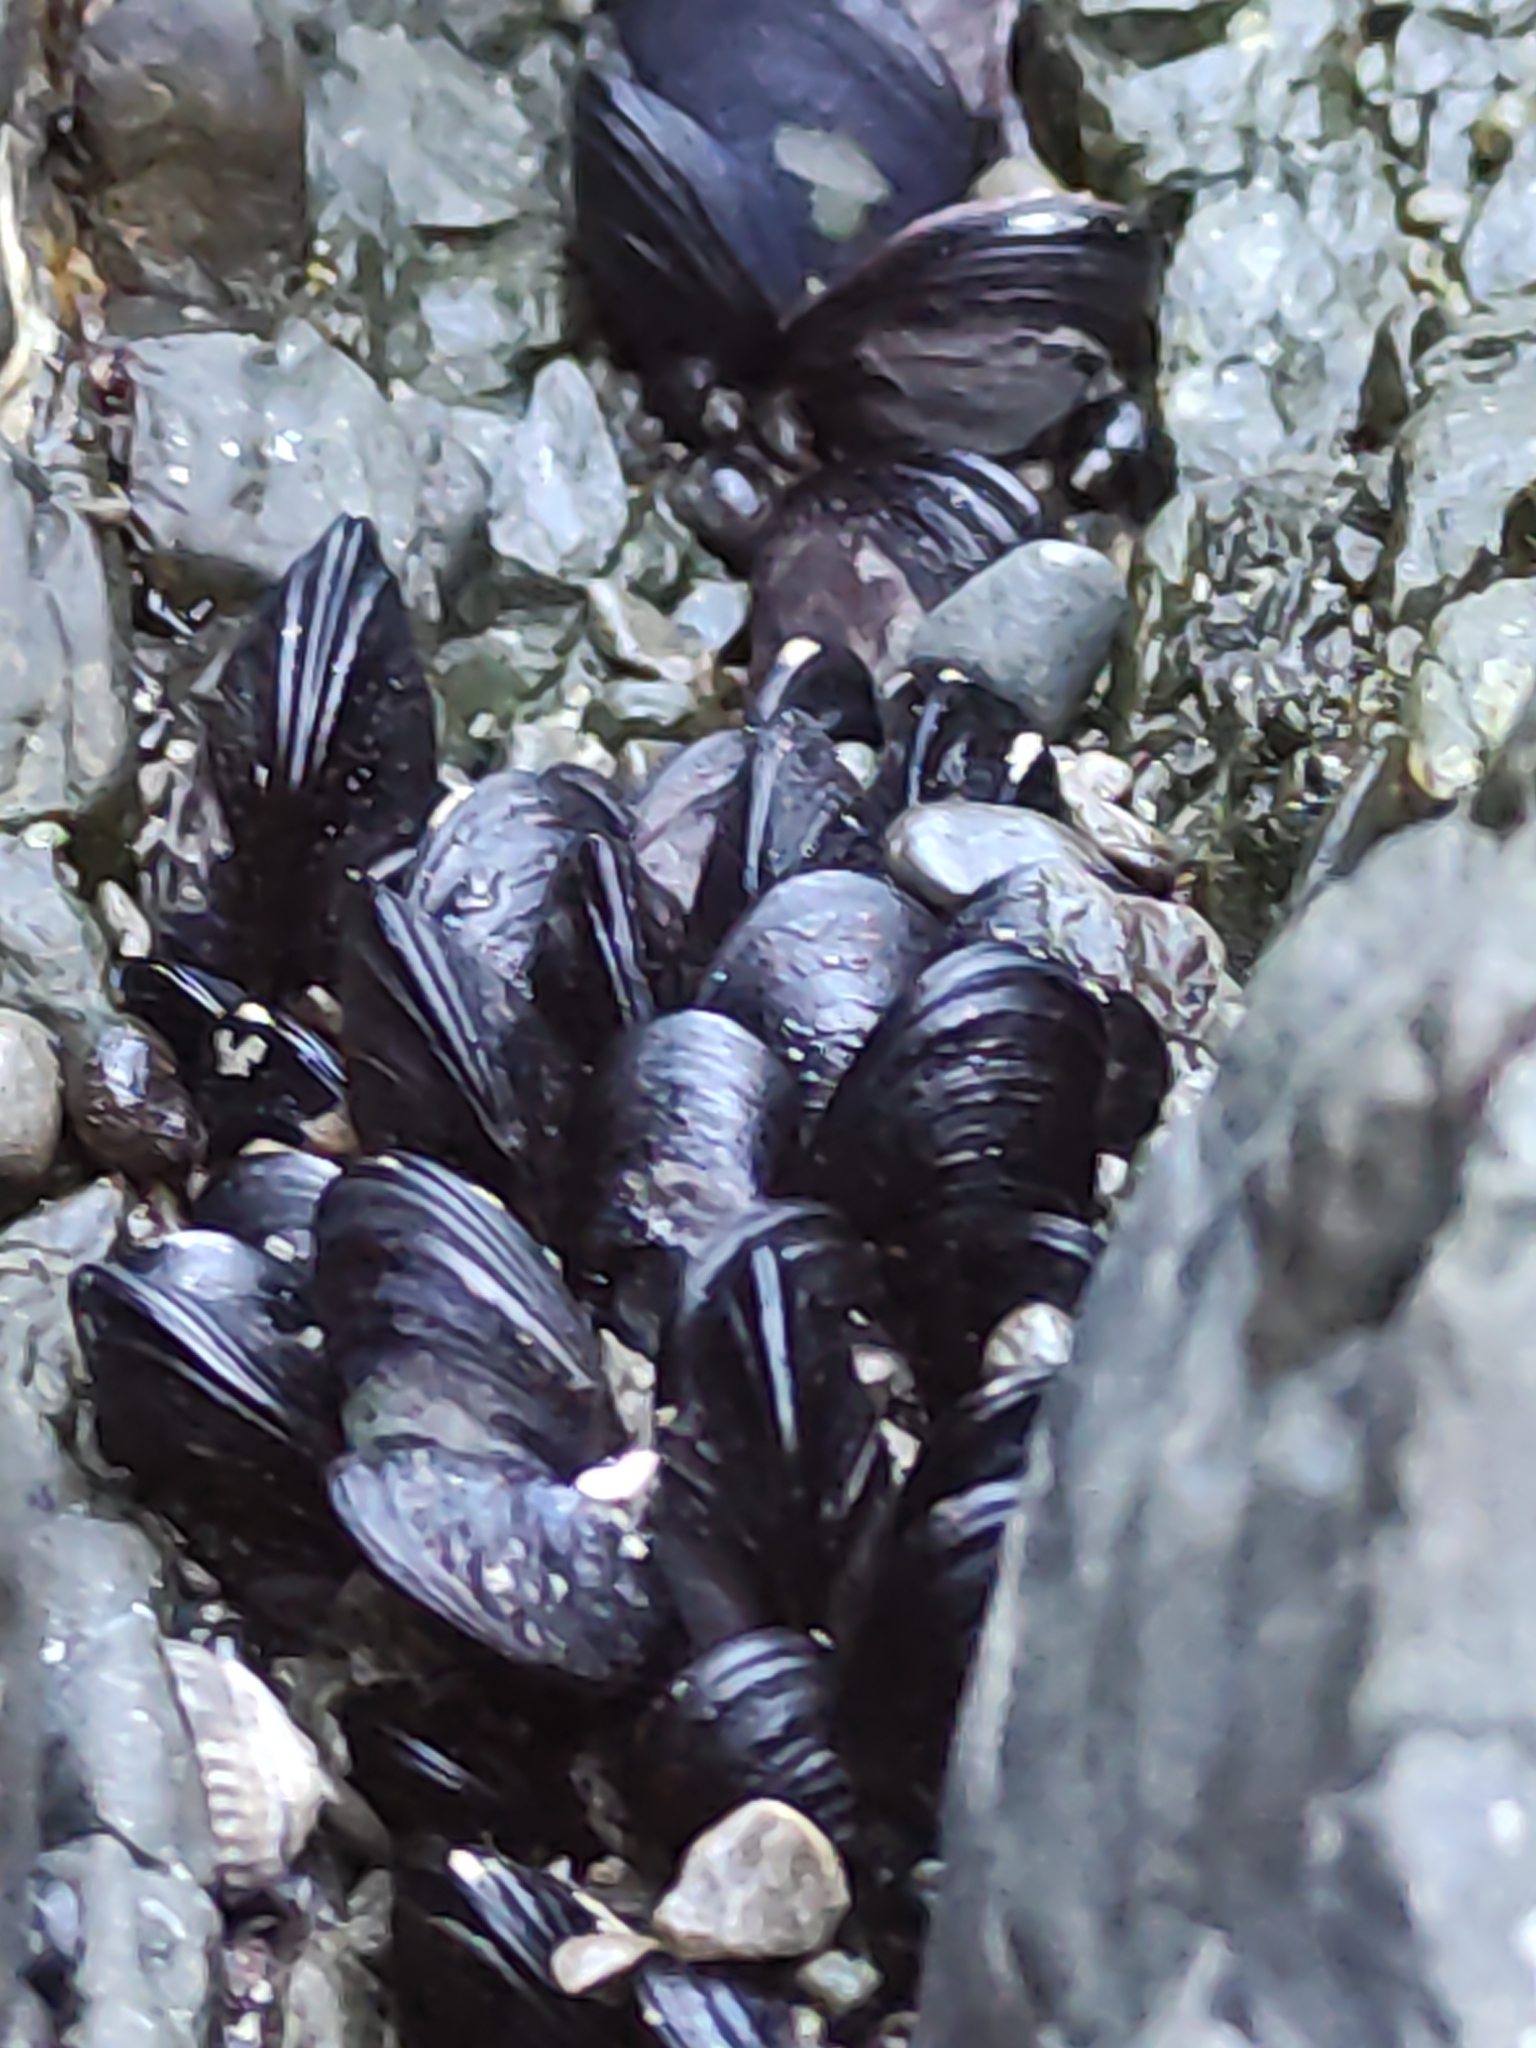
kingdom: Animalia
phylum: Mollusca
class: Bivalvia
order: Mytilida
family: Mytilidae
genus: Xenostrobus
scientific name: Xenostrobus neozelanicus
